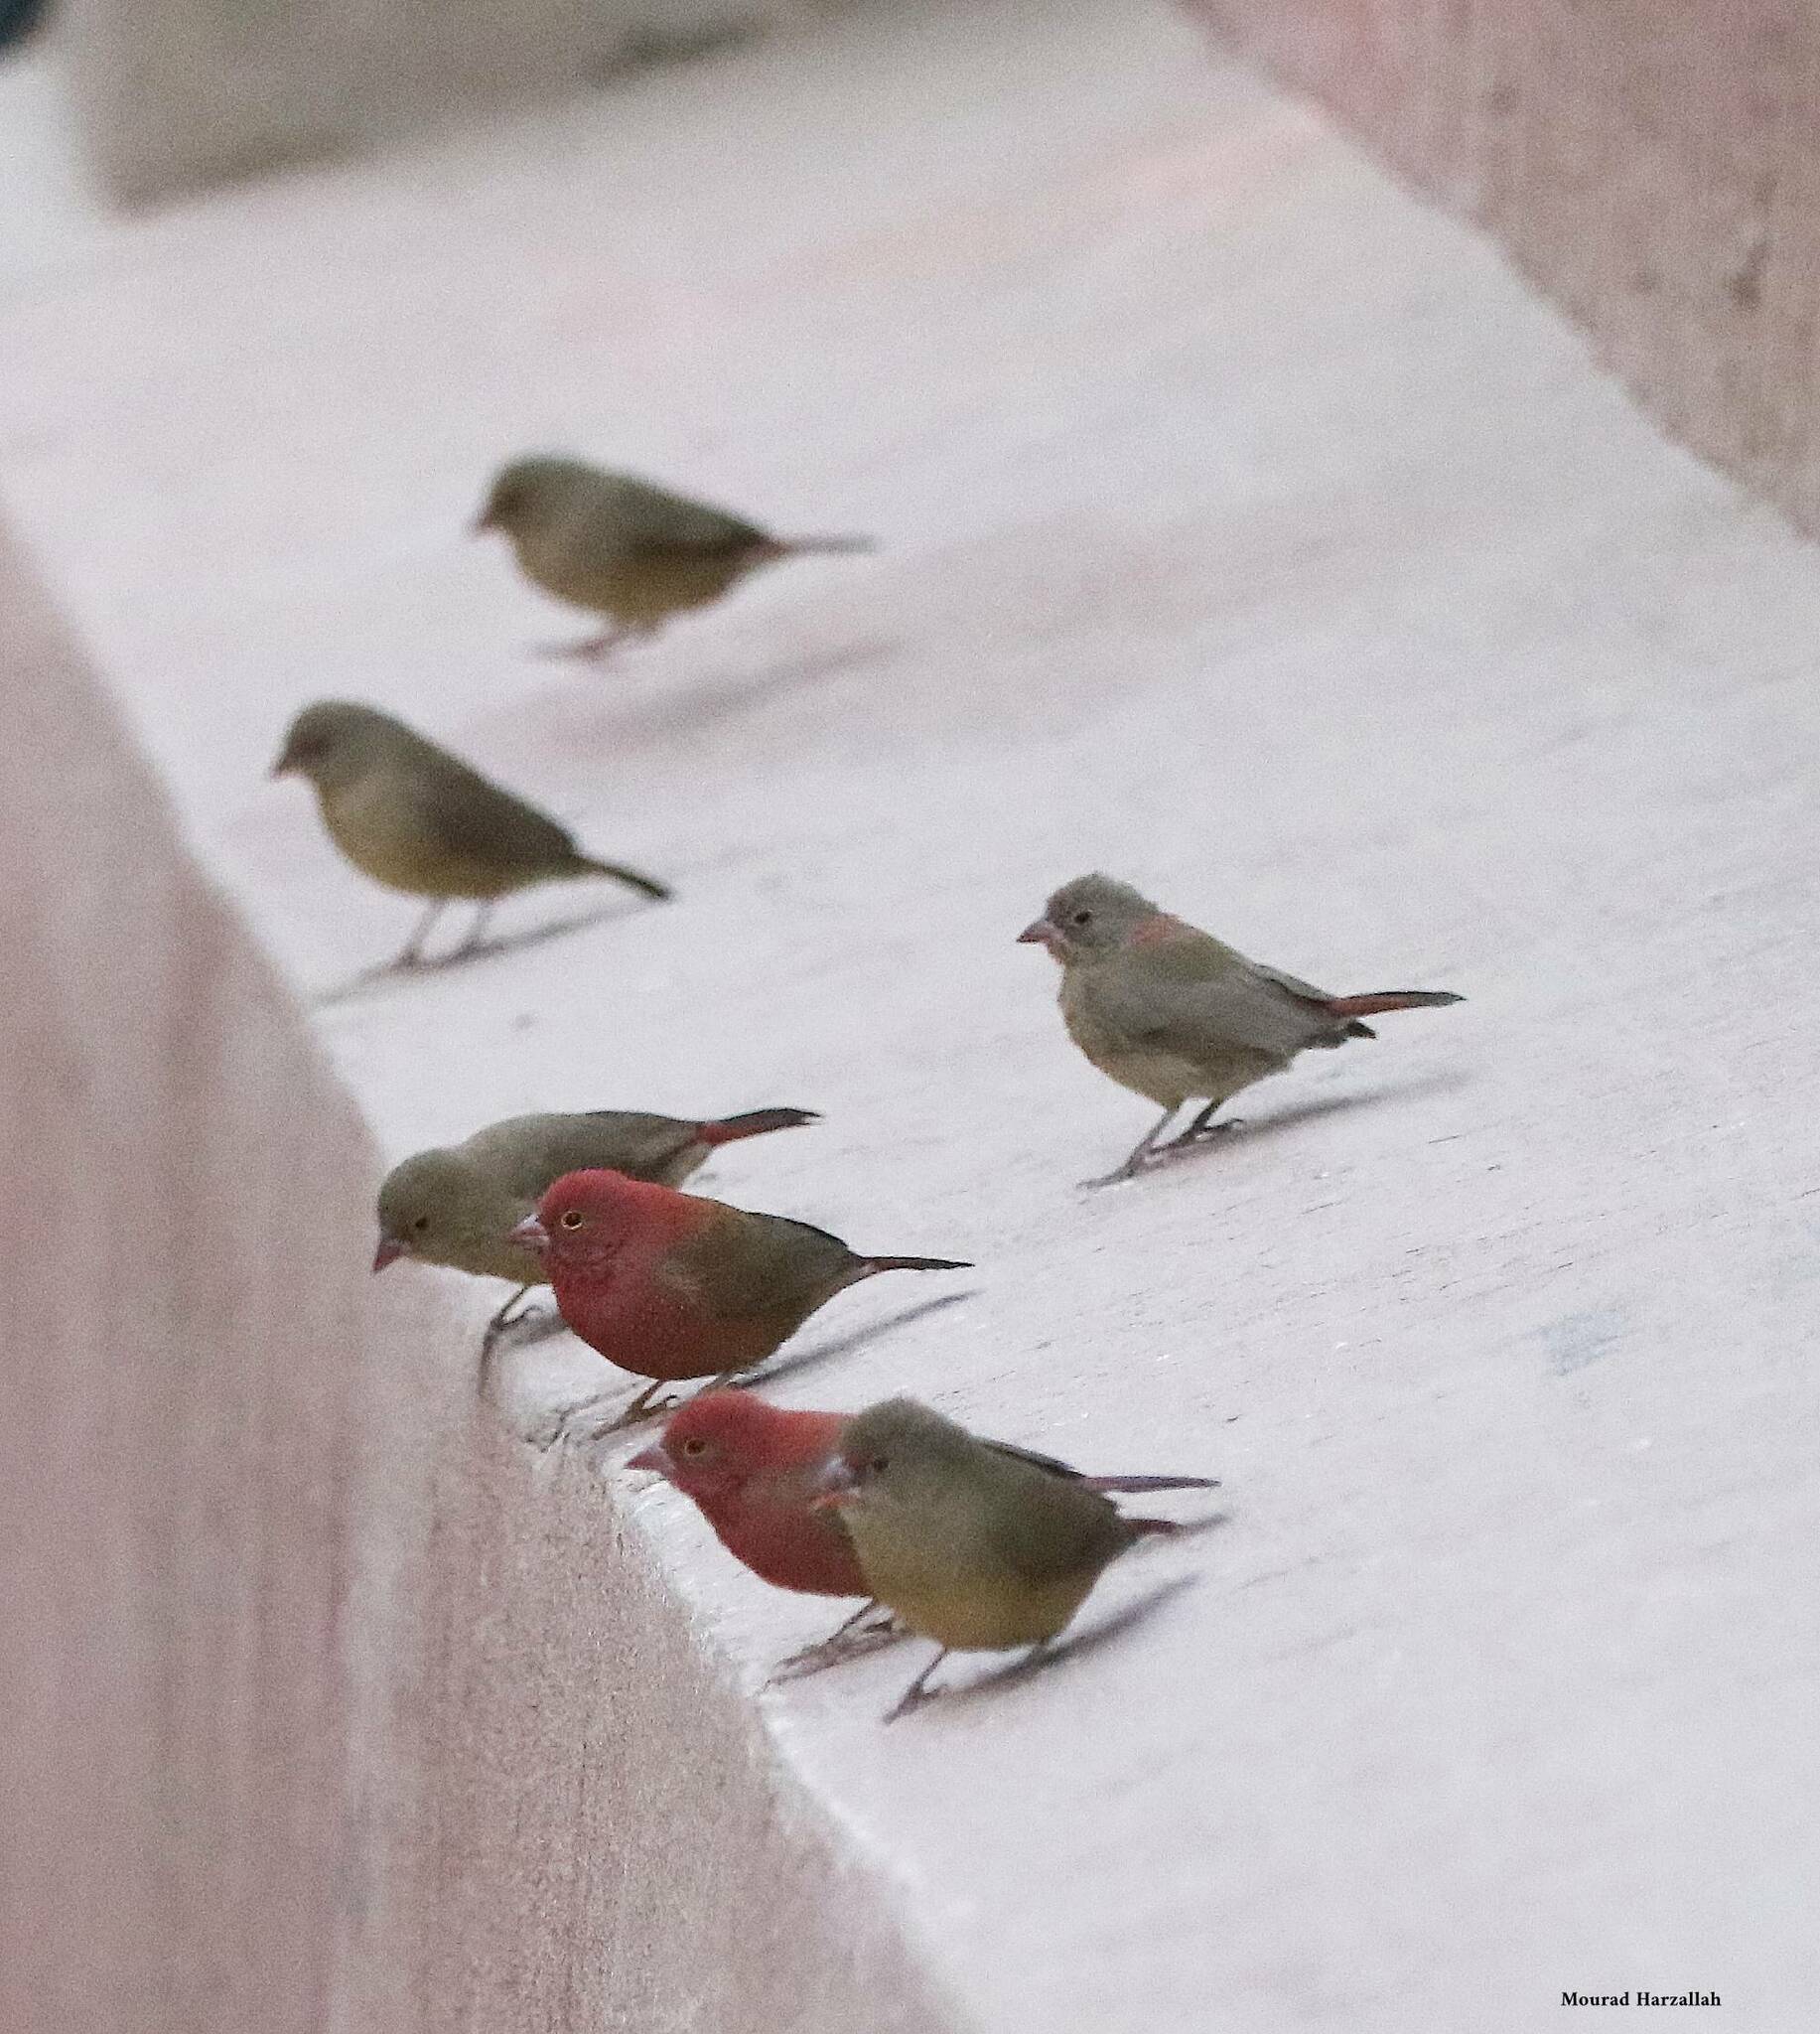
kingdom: Animalia
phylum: Chordata
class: Aves
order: Passeriformes
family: Estrildidae
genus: Lagonosticta
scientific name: Lagonosticta senegala
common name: Red-billed firefinch
